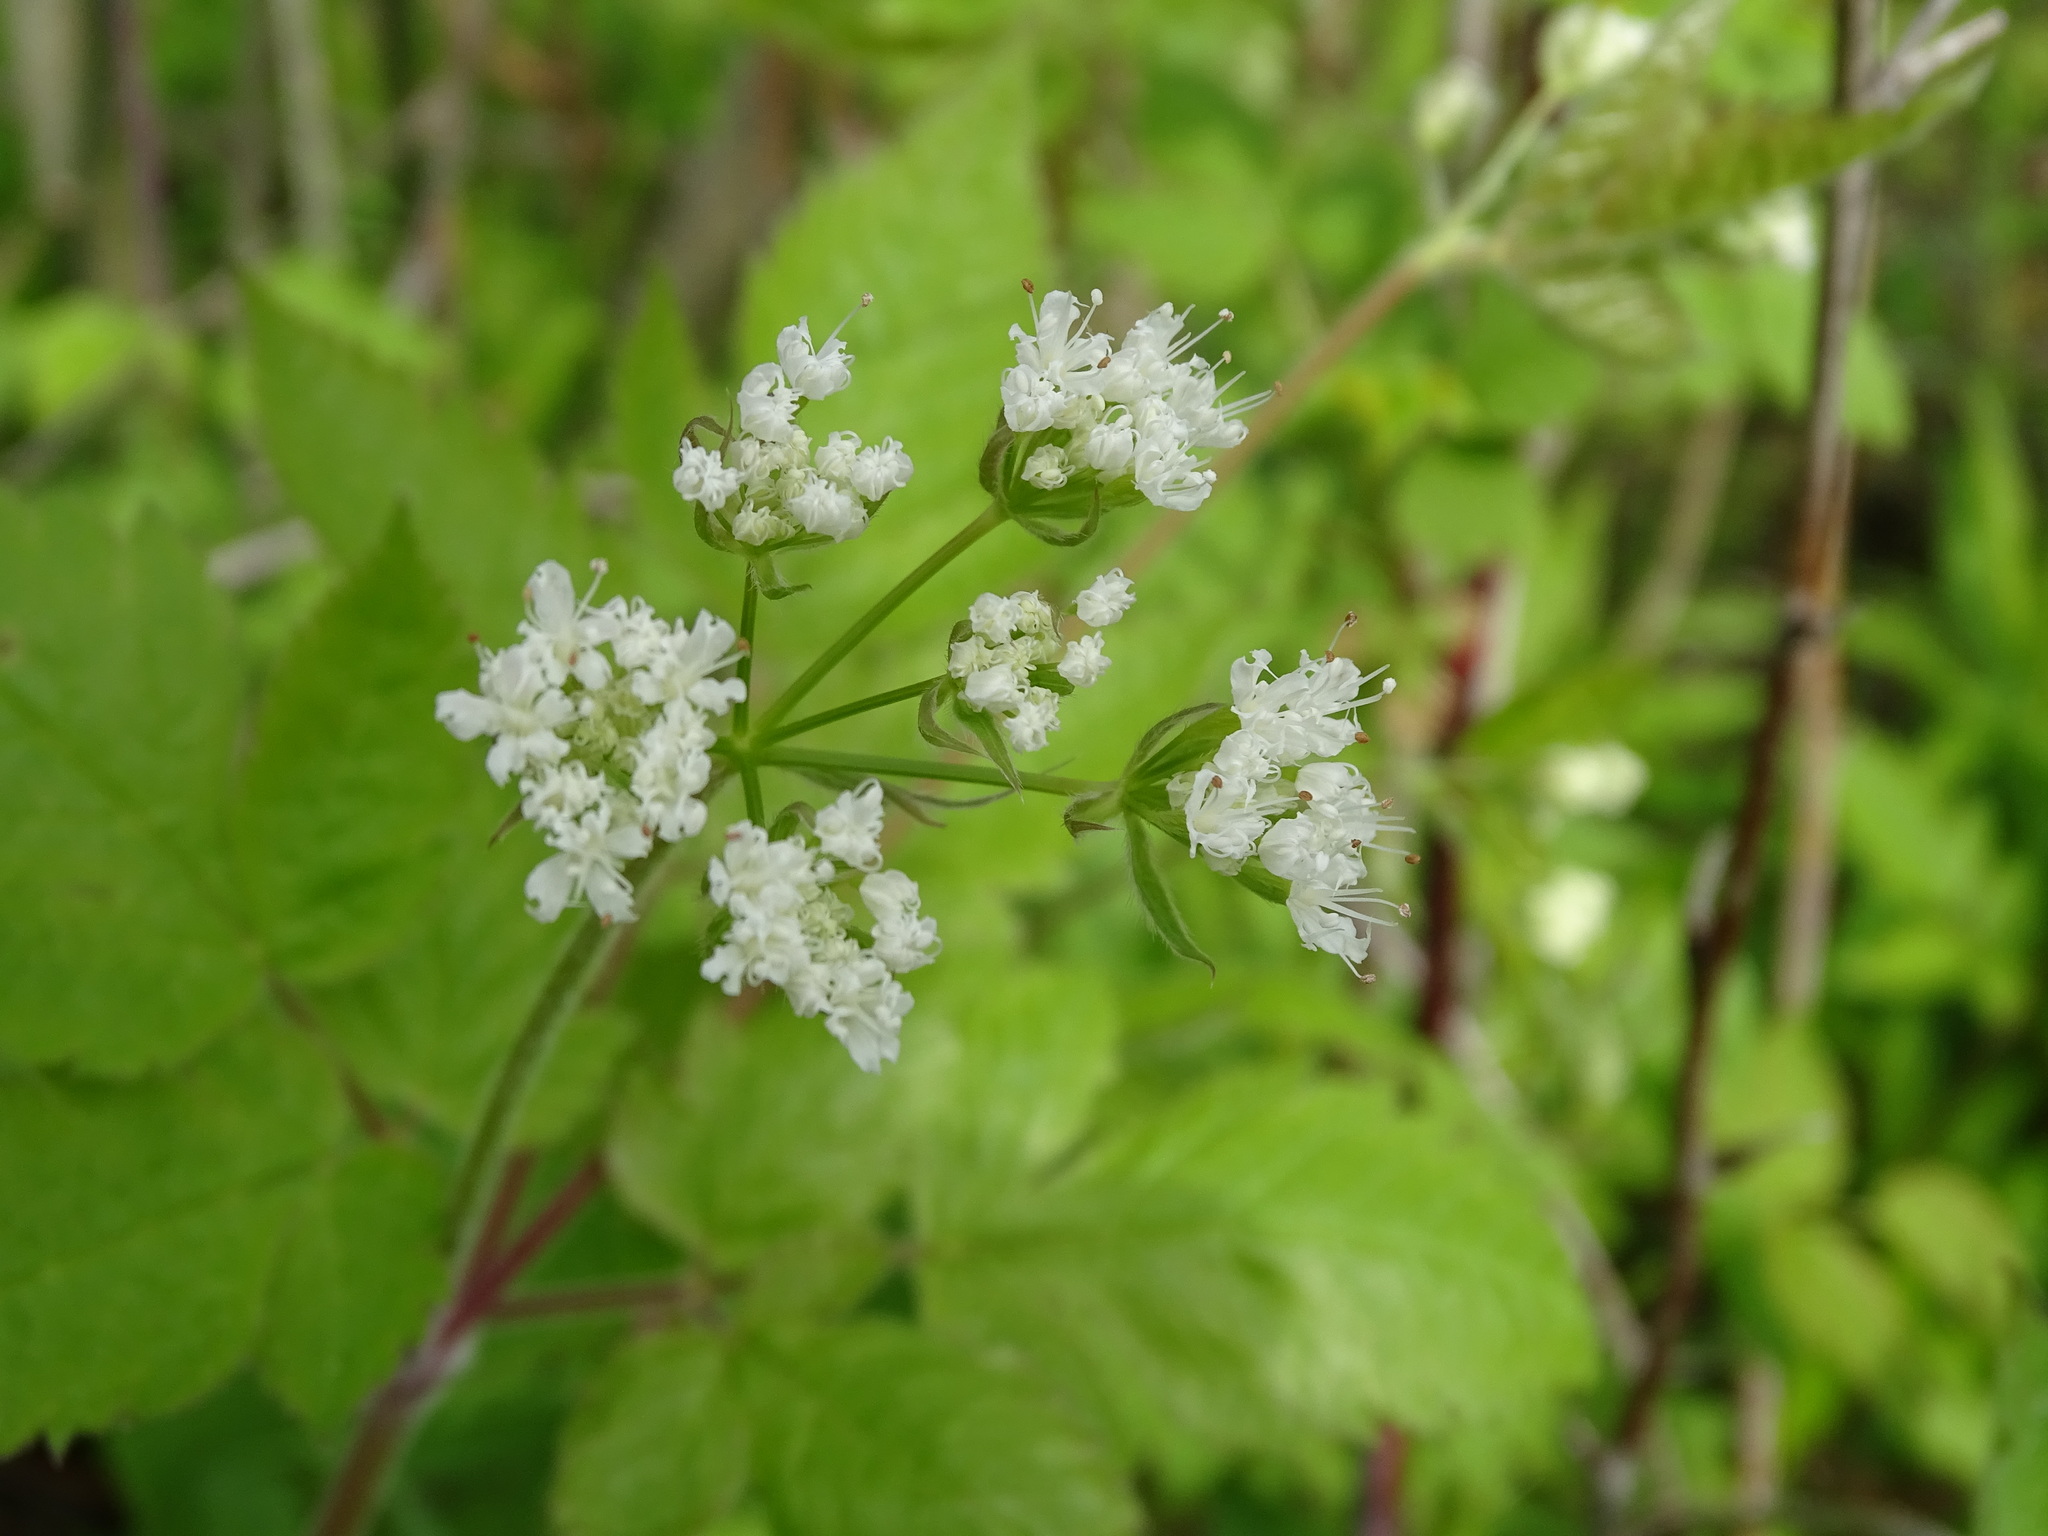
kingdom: Plantae
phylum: Tracheophyta
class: Magnoliopsida
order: Apiales
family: Apiaceae
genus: Osmorhiza
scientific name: Osmorhiza claytonii
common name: Hairy sweet cicely
